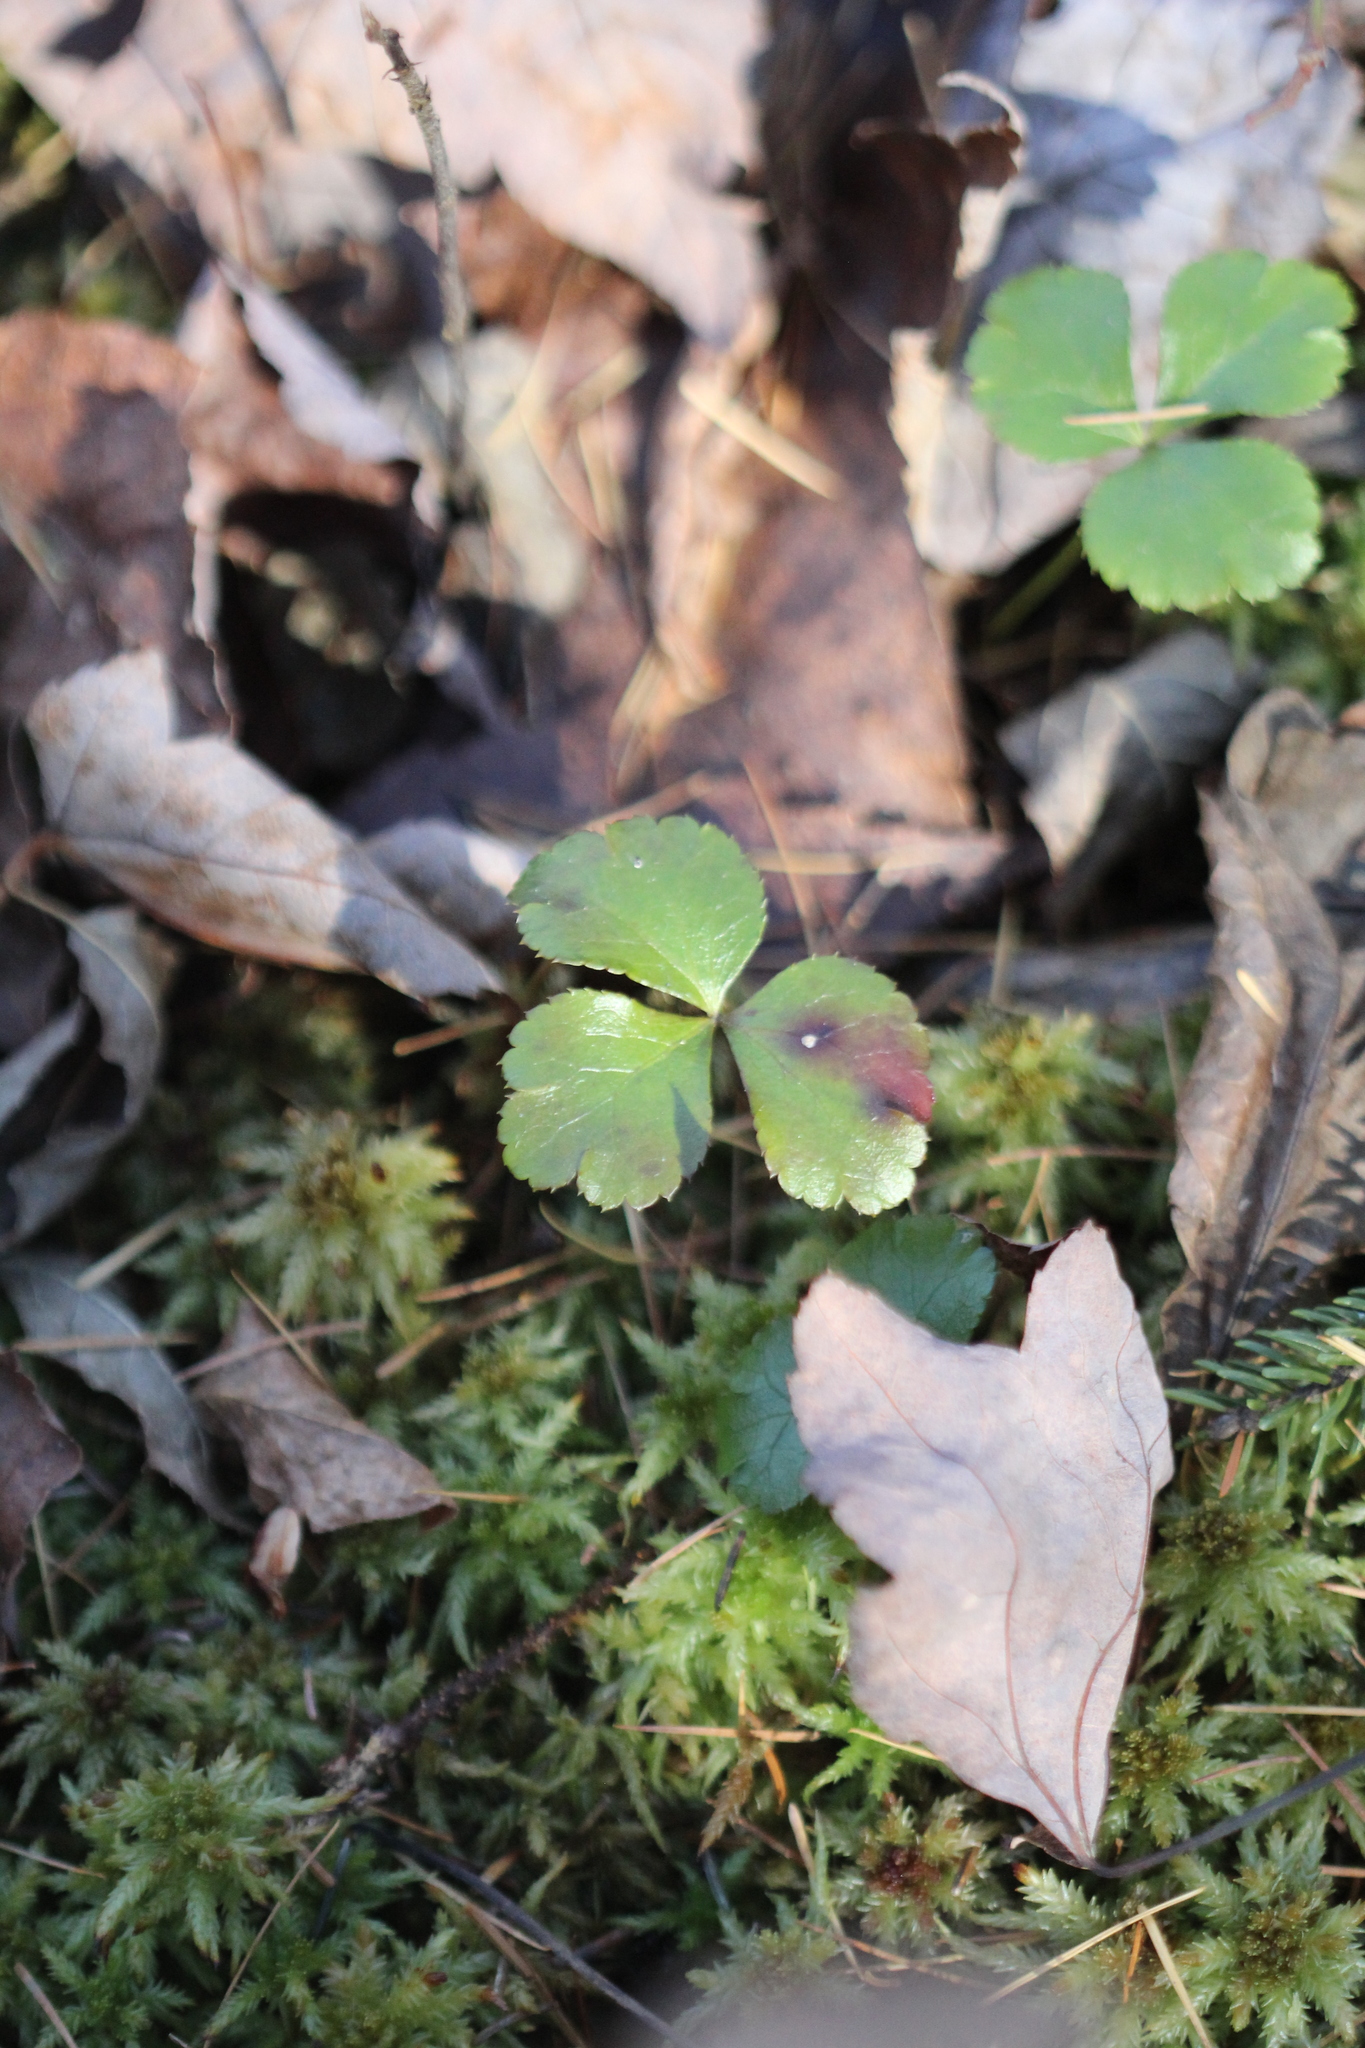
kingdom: Plantae
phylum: Tracheophyta
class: Magnoliopsida
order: Ranunculales
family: Ranunculaceae
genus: Coptis
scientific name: Coptis trifolia
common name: Canker-root
